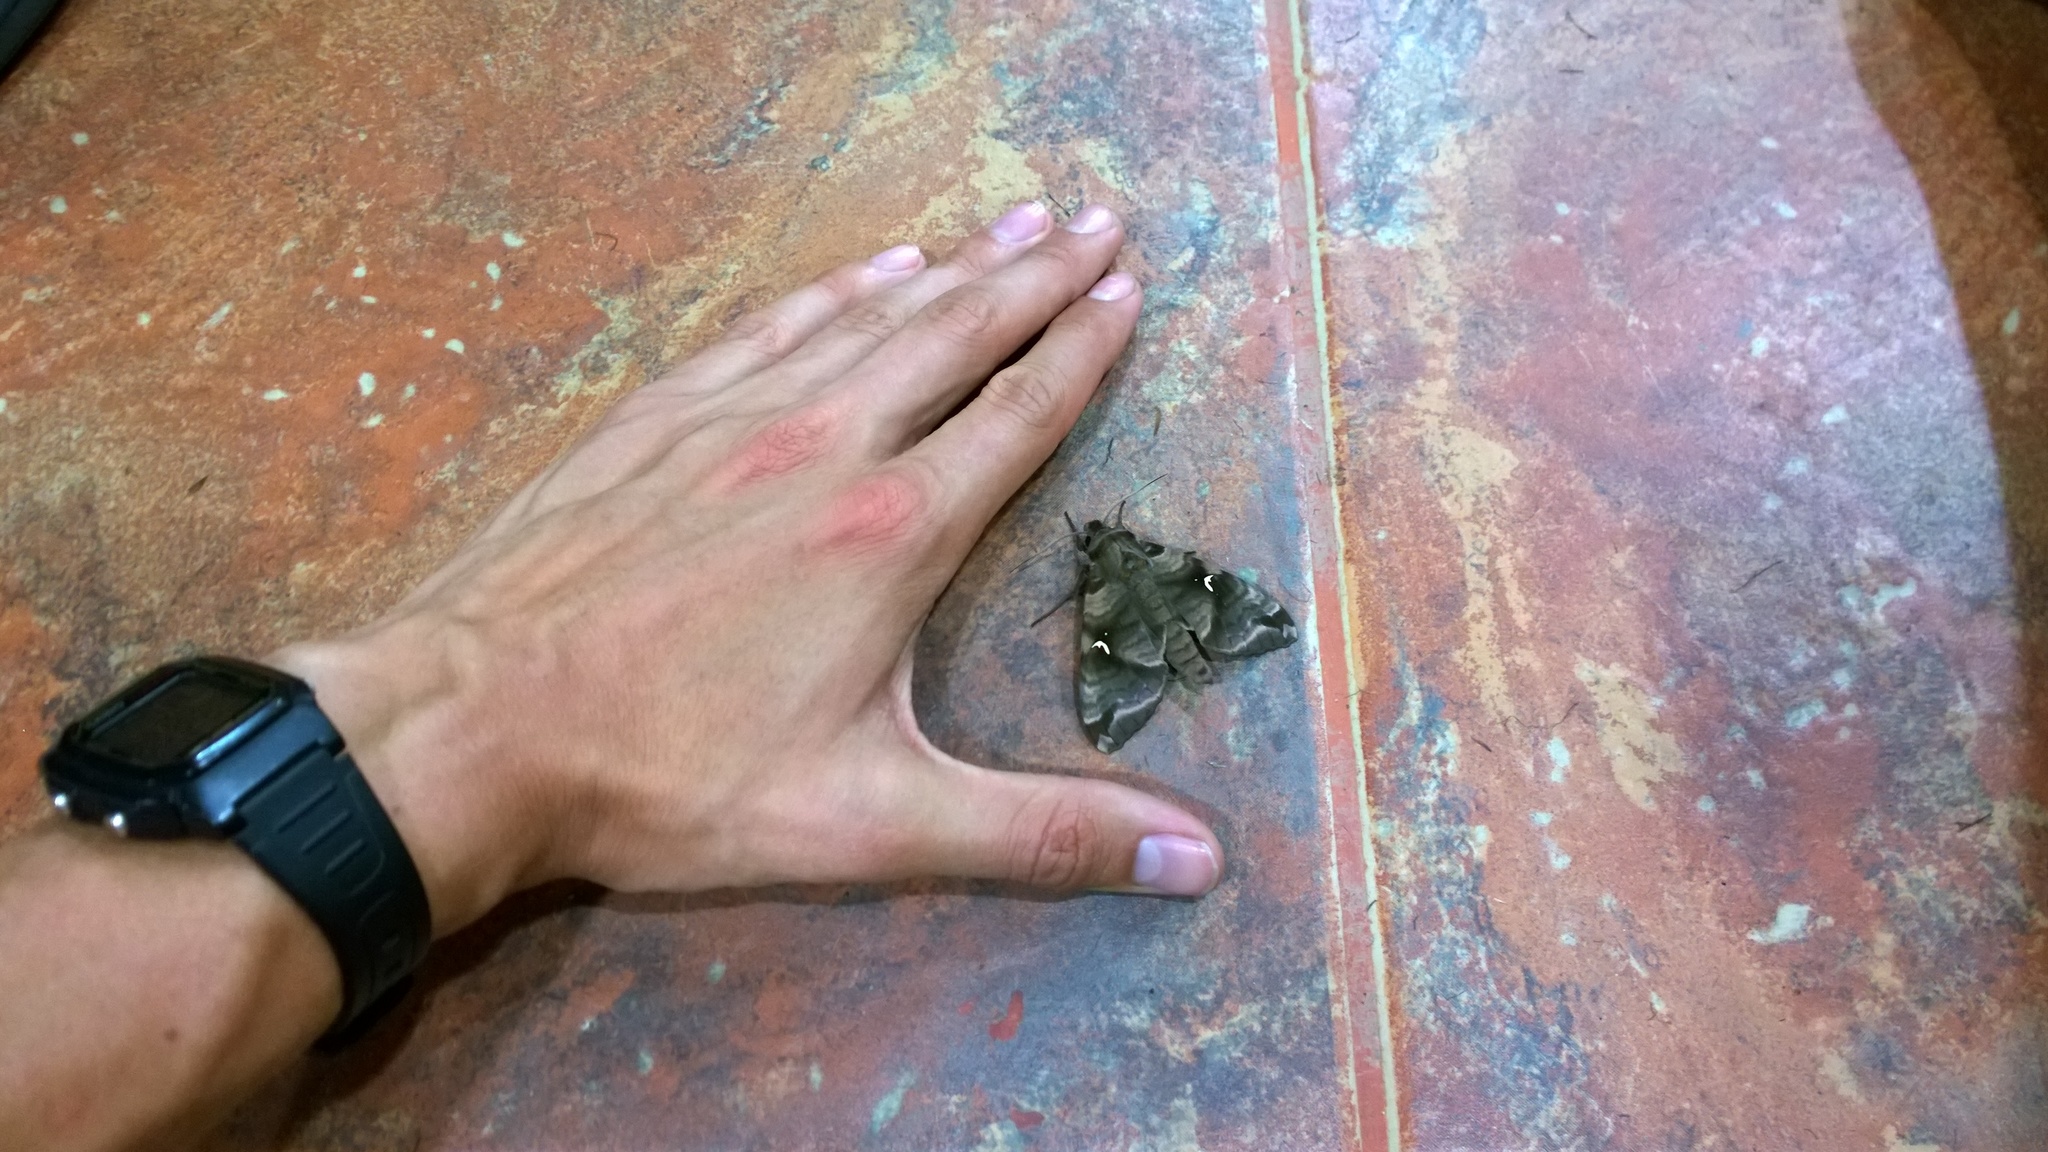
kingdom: Animalia
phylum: Arthropoda
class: Insecta
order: Lepidoptera
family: Sphingidae
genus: Maassenia
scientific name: Maassenia heydeni
